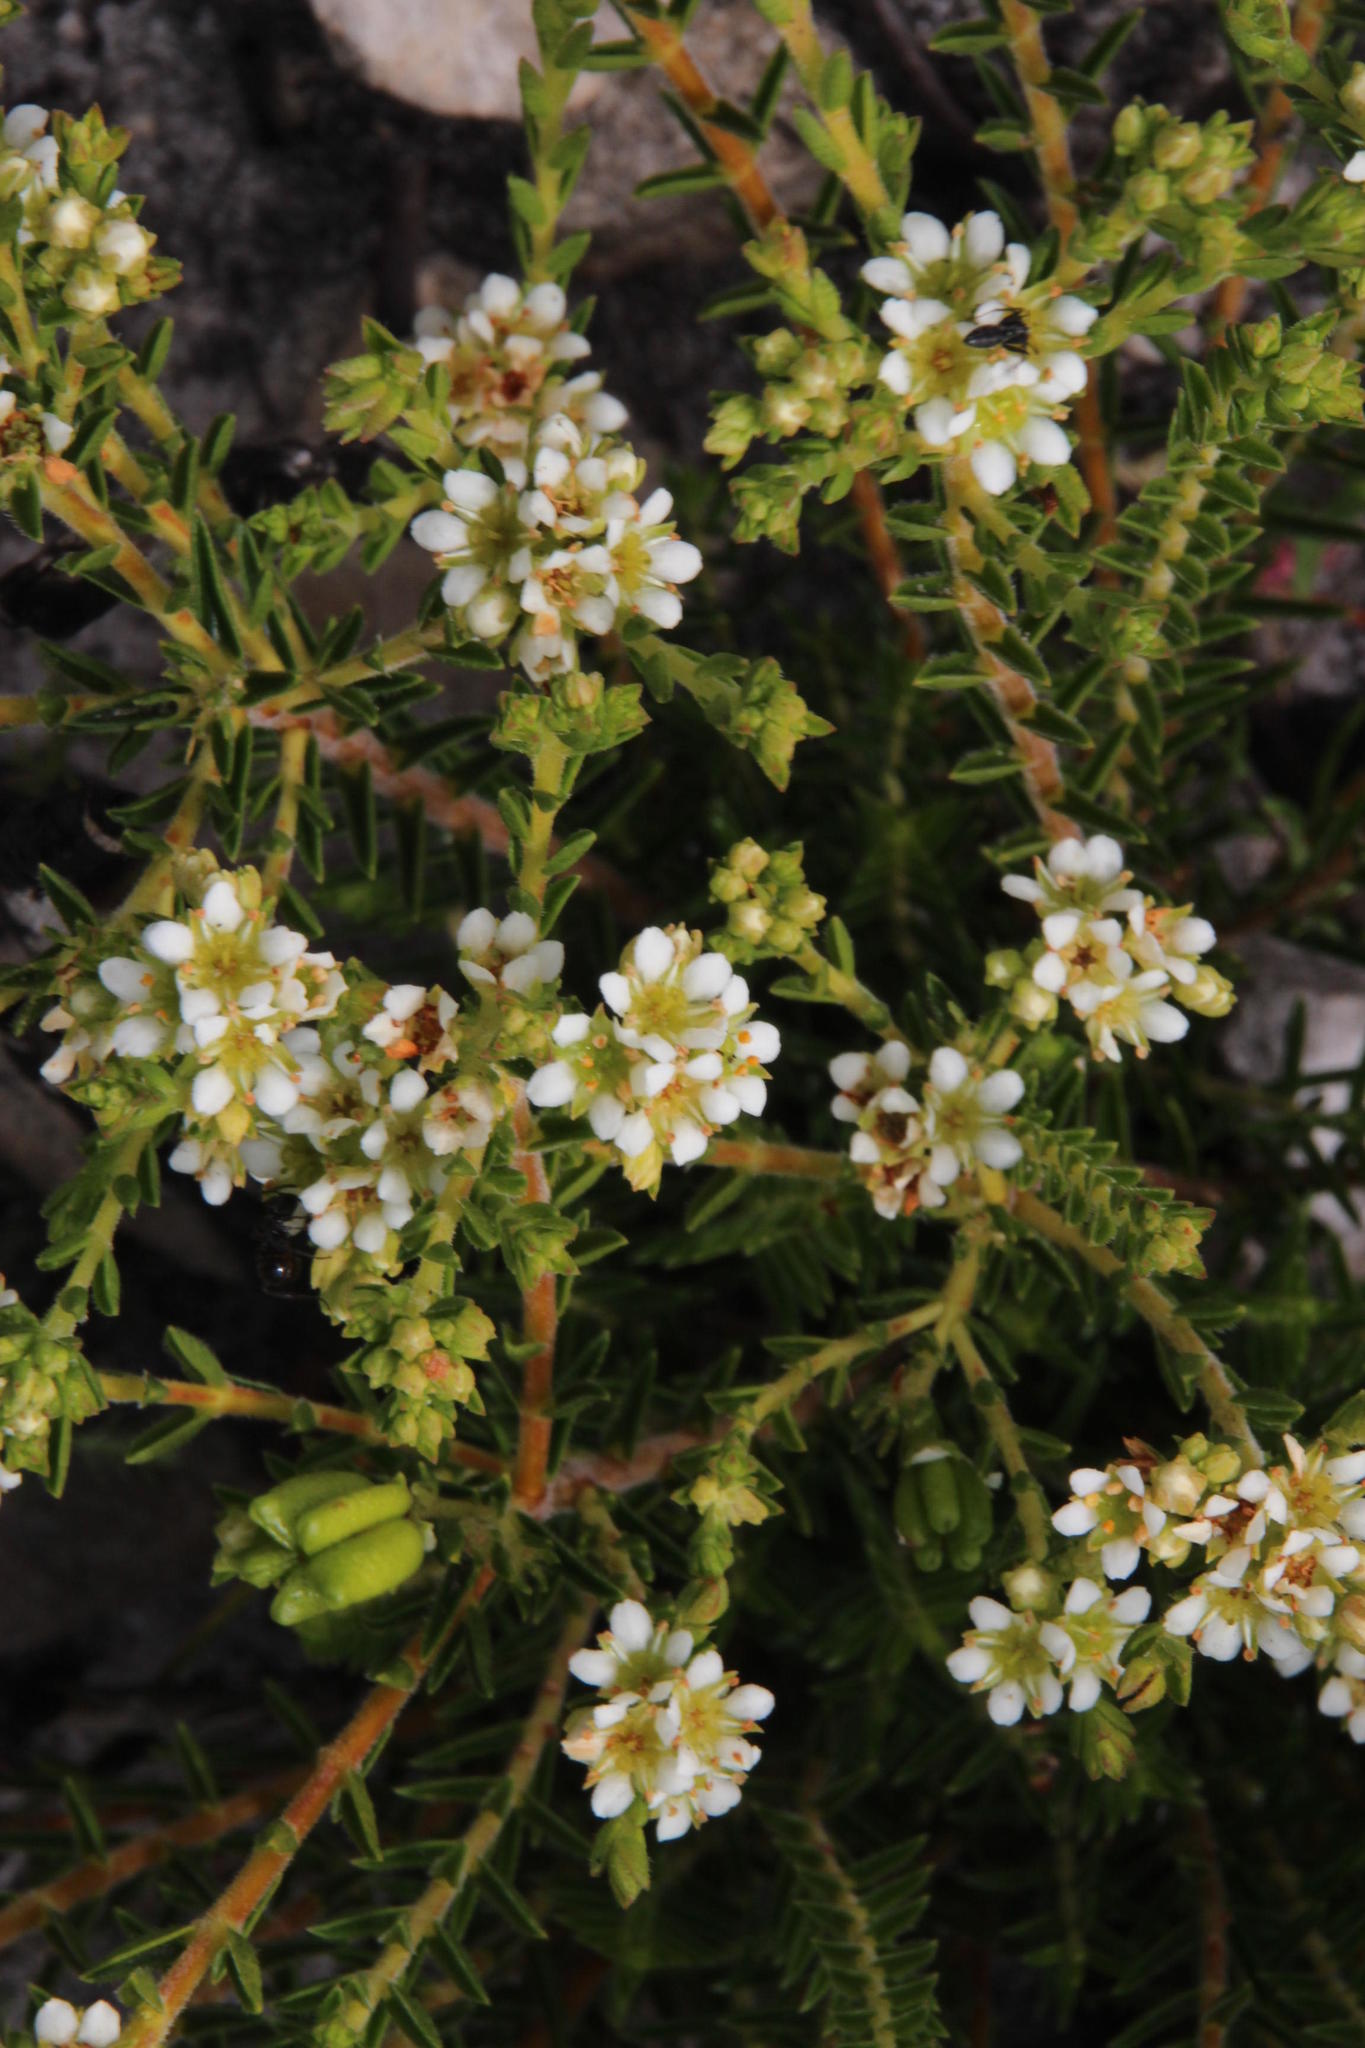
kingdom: Plantae
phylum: Tracheophyta
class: Magnoliopsida
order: Sapindales
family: Rutaceae
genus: Diosma
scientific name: Diosma oppositifolia
